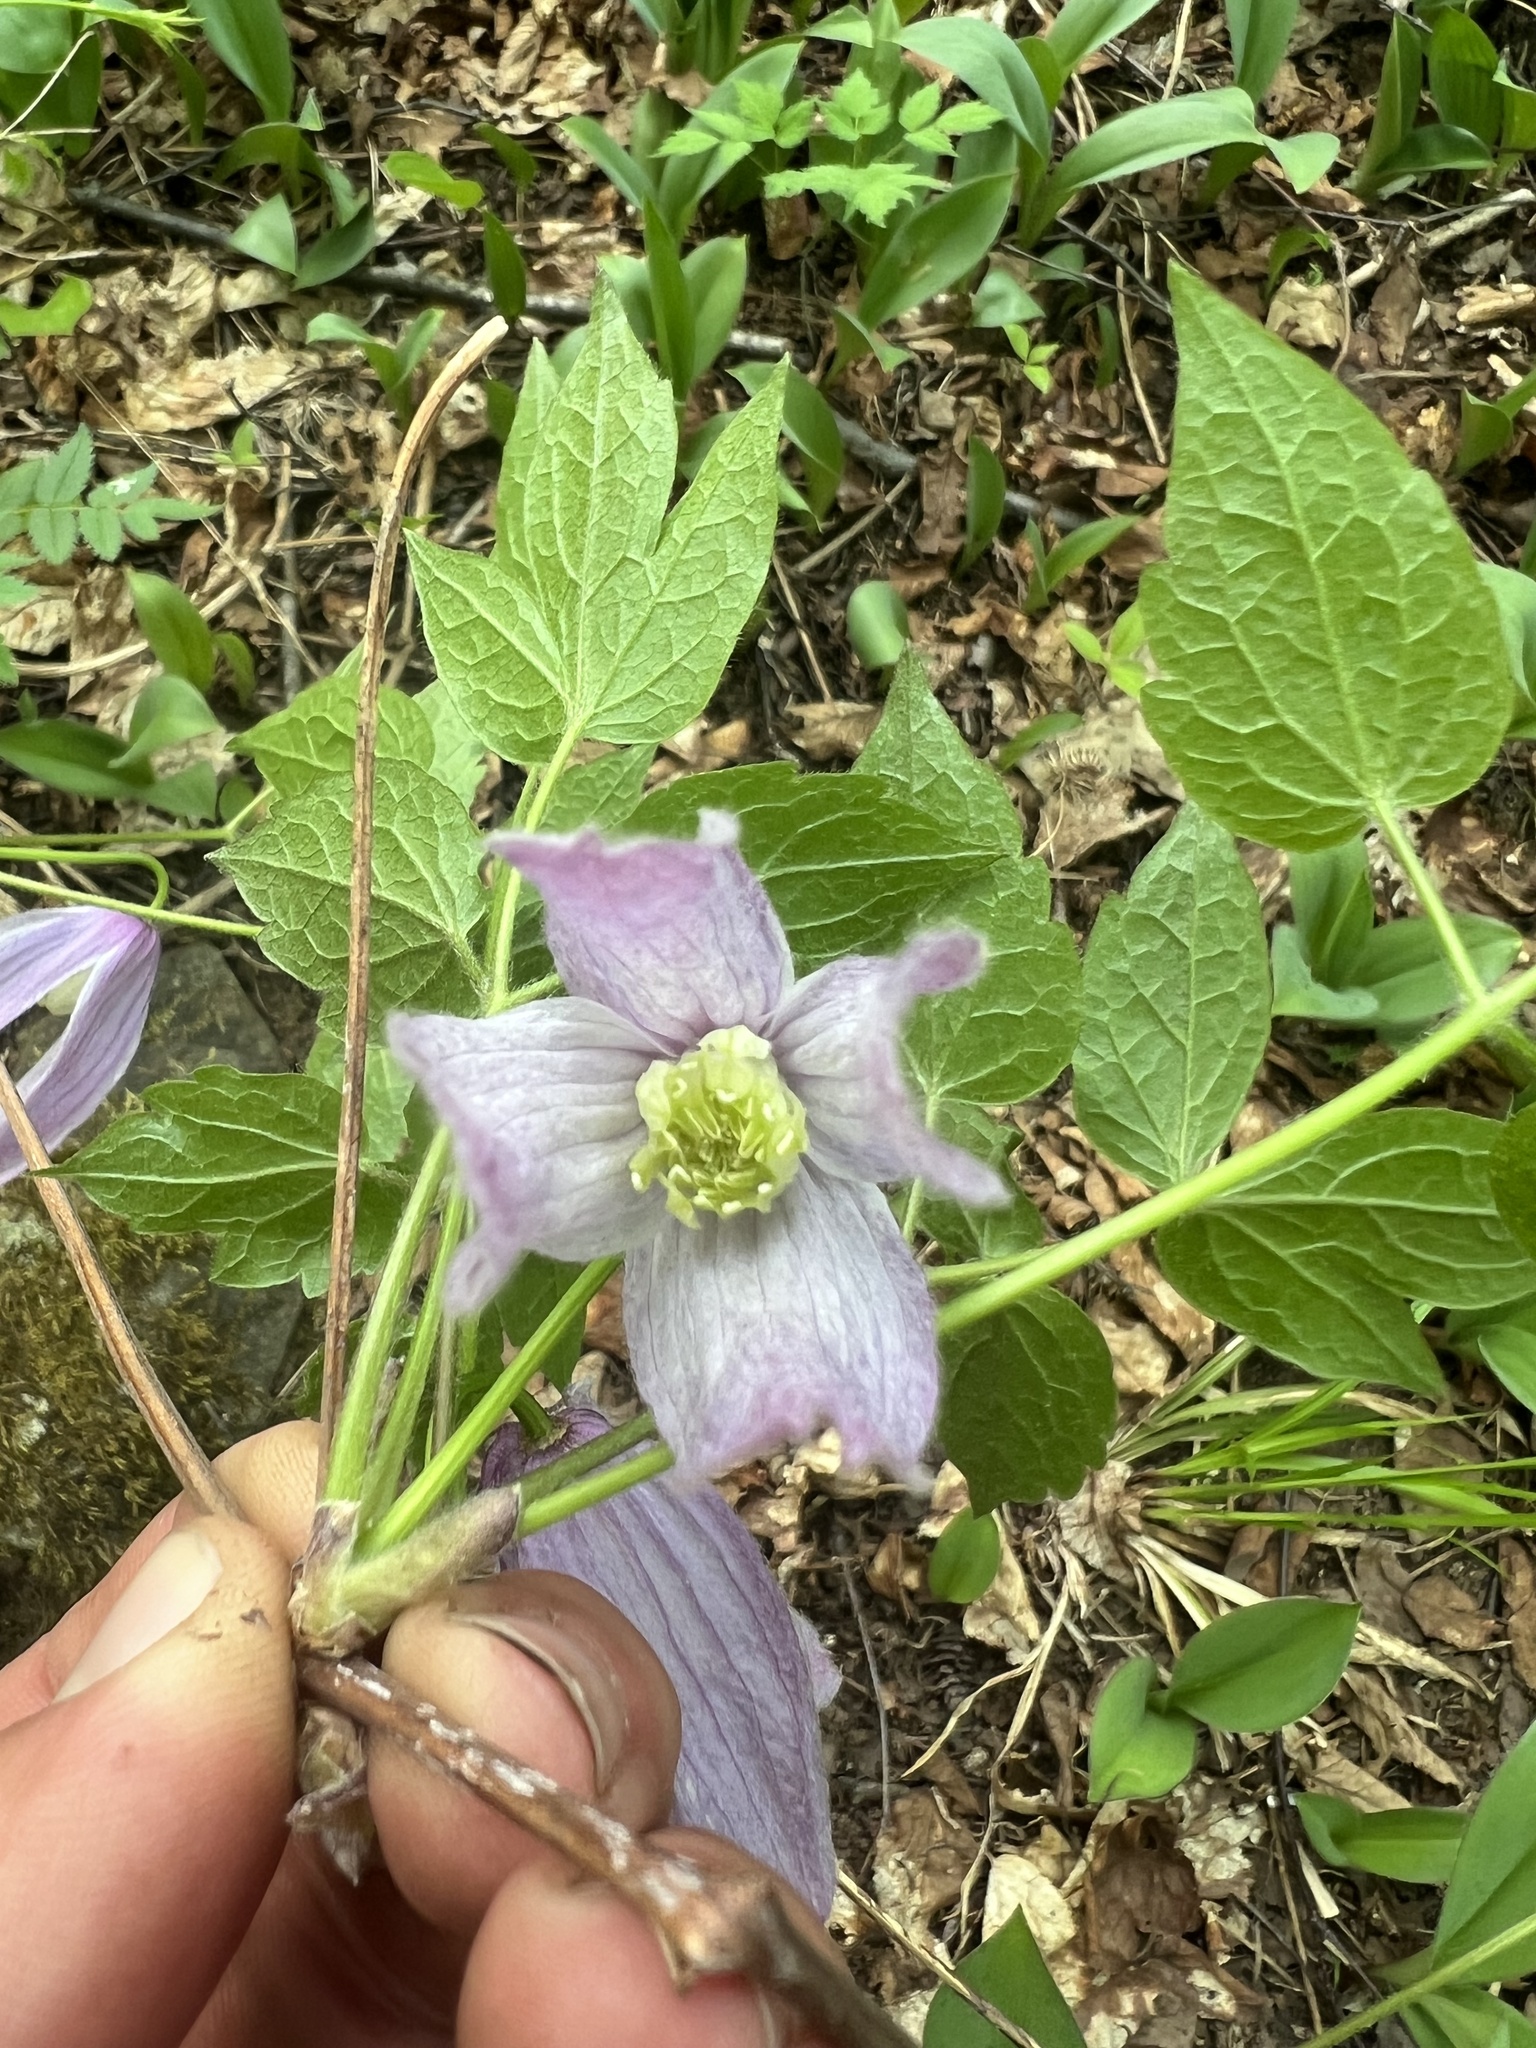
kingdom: Plantae
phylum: Tracheophyta
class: Magnoliopsida
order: Ranunculales
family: Ranunculaceae
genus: Clematis
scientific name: Clematis occidentalis
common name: Purple clematis
